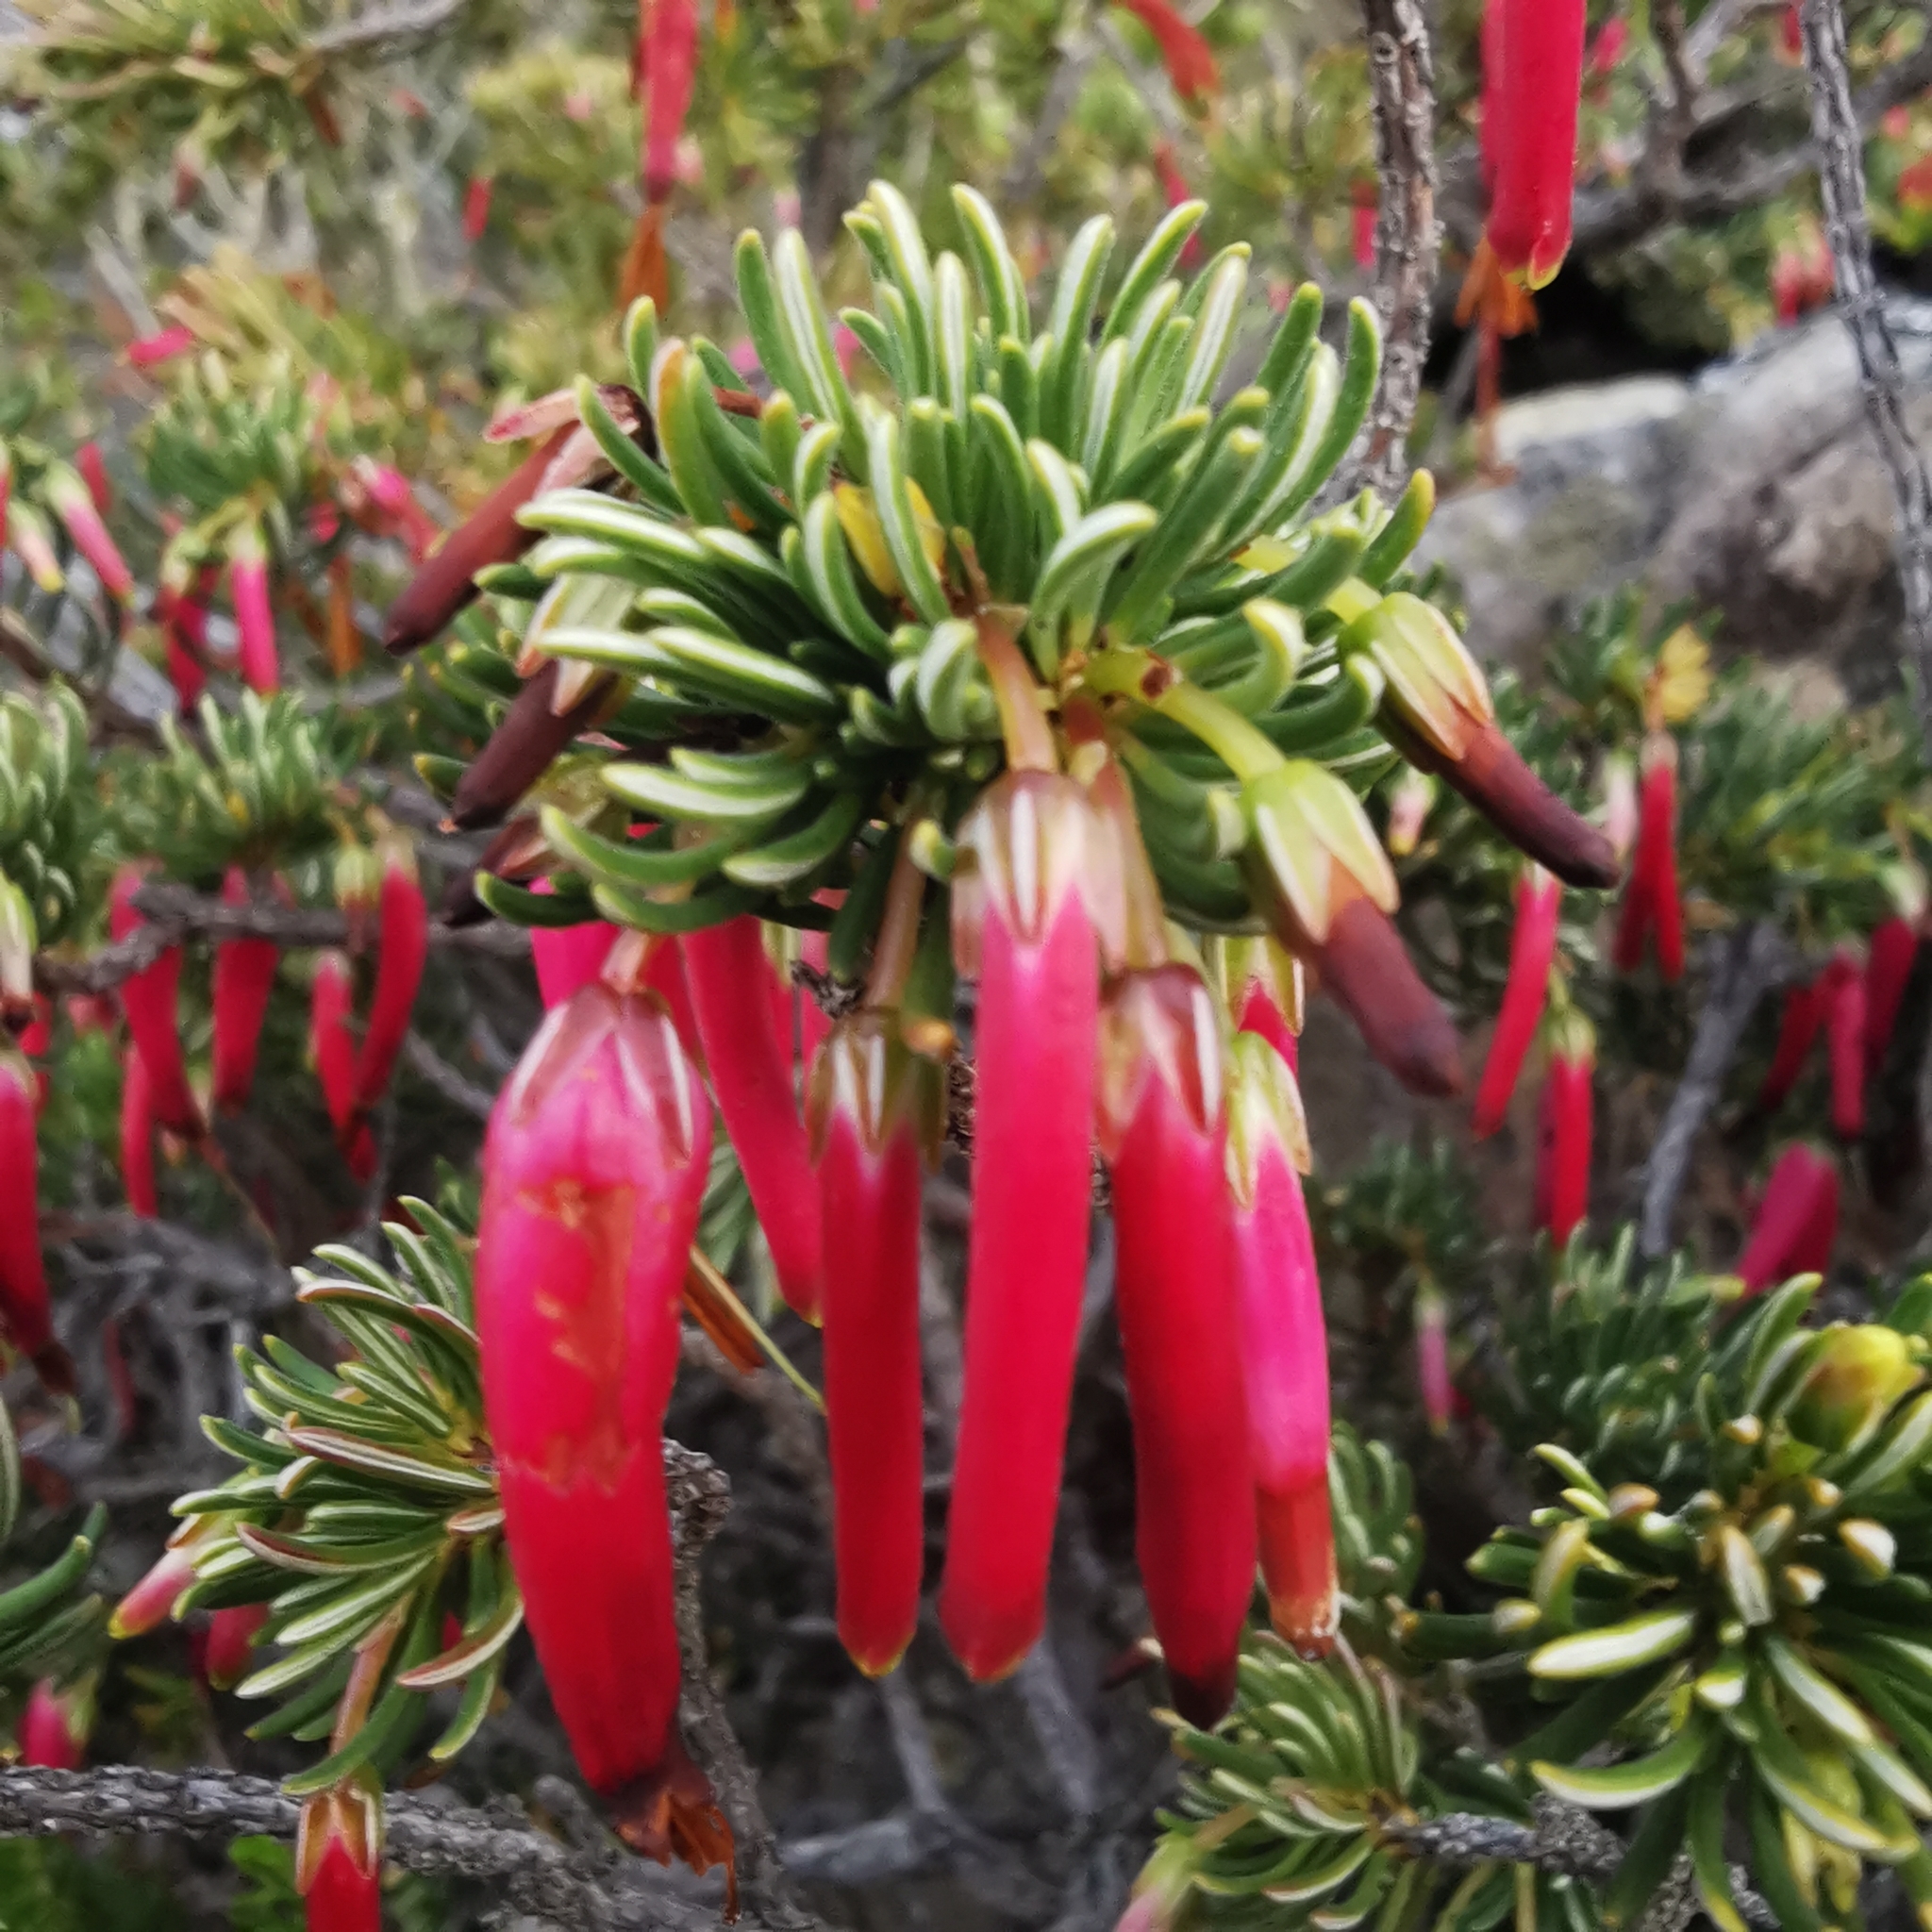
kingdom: Plantae
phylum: Tracheophyta
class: Magnoliopsida
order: Ericales
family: Ericaceae
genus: Erica
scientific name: Erica plukenetii
